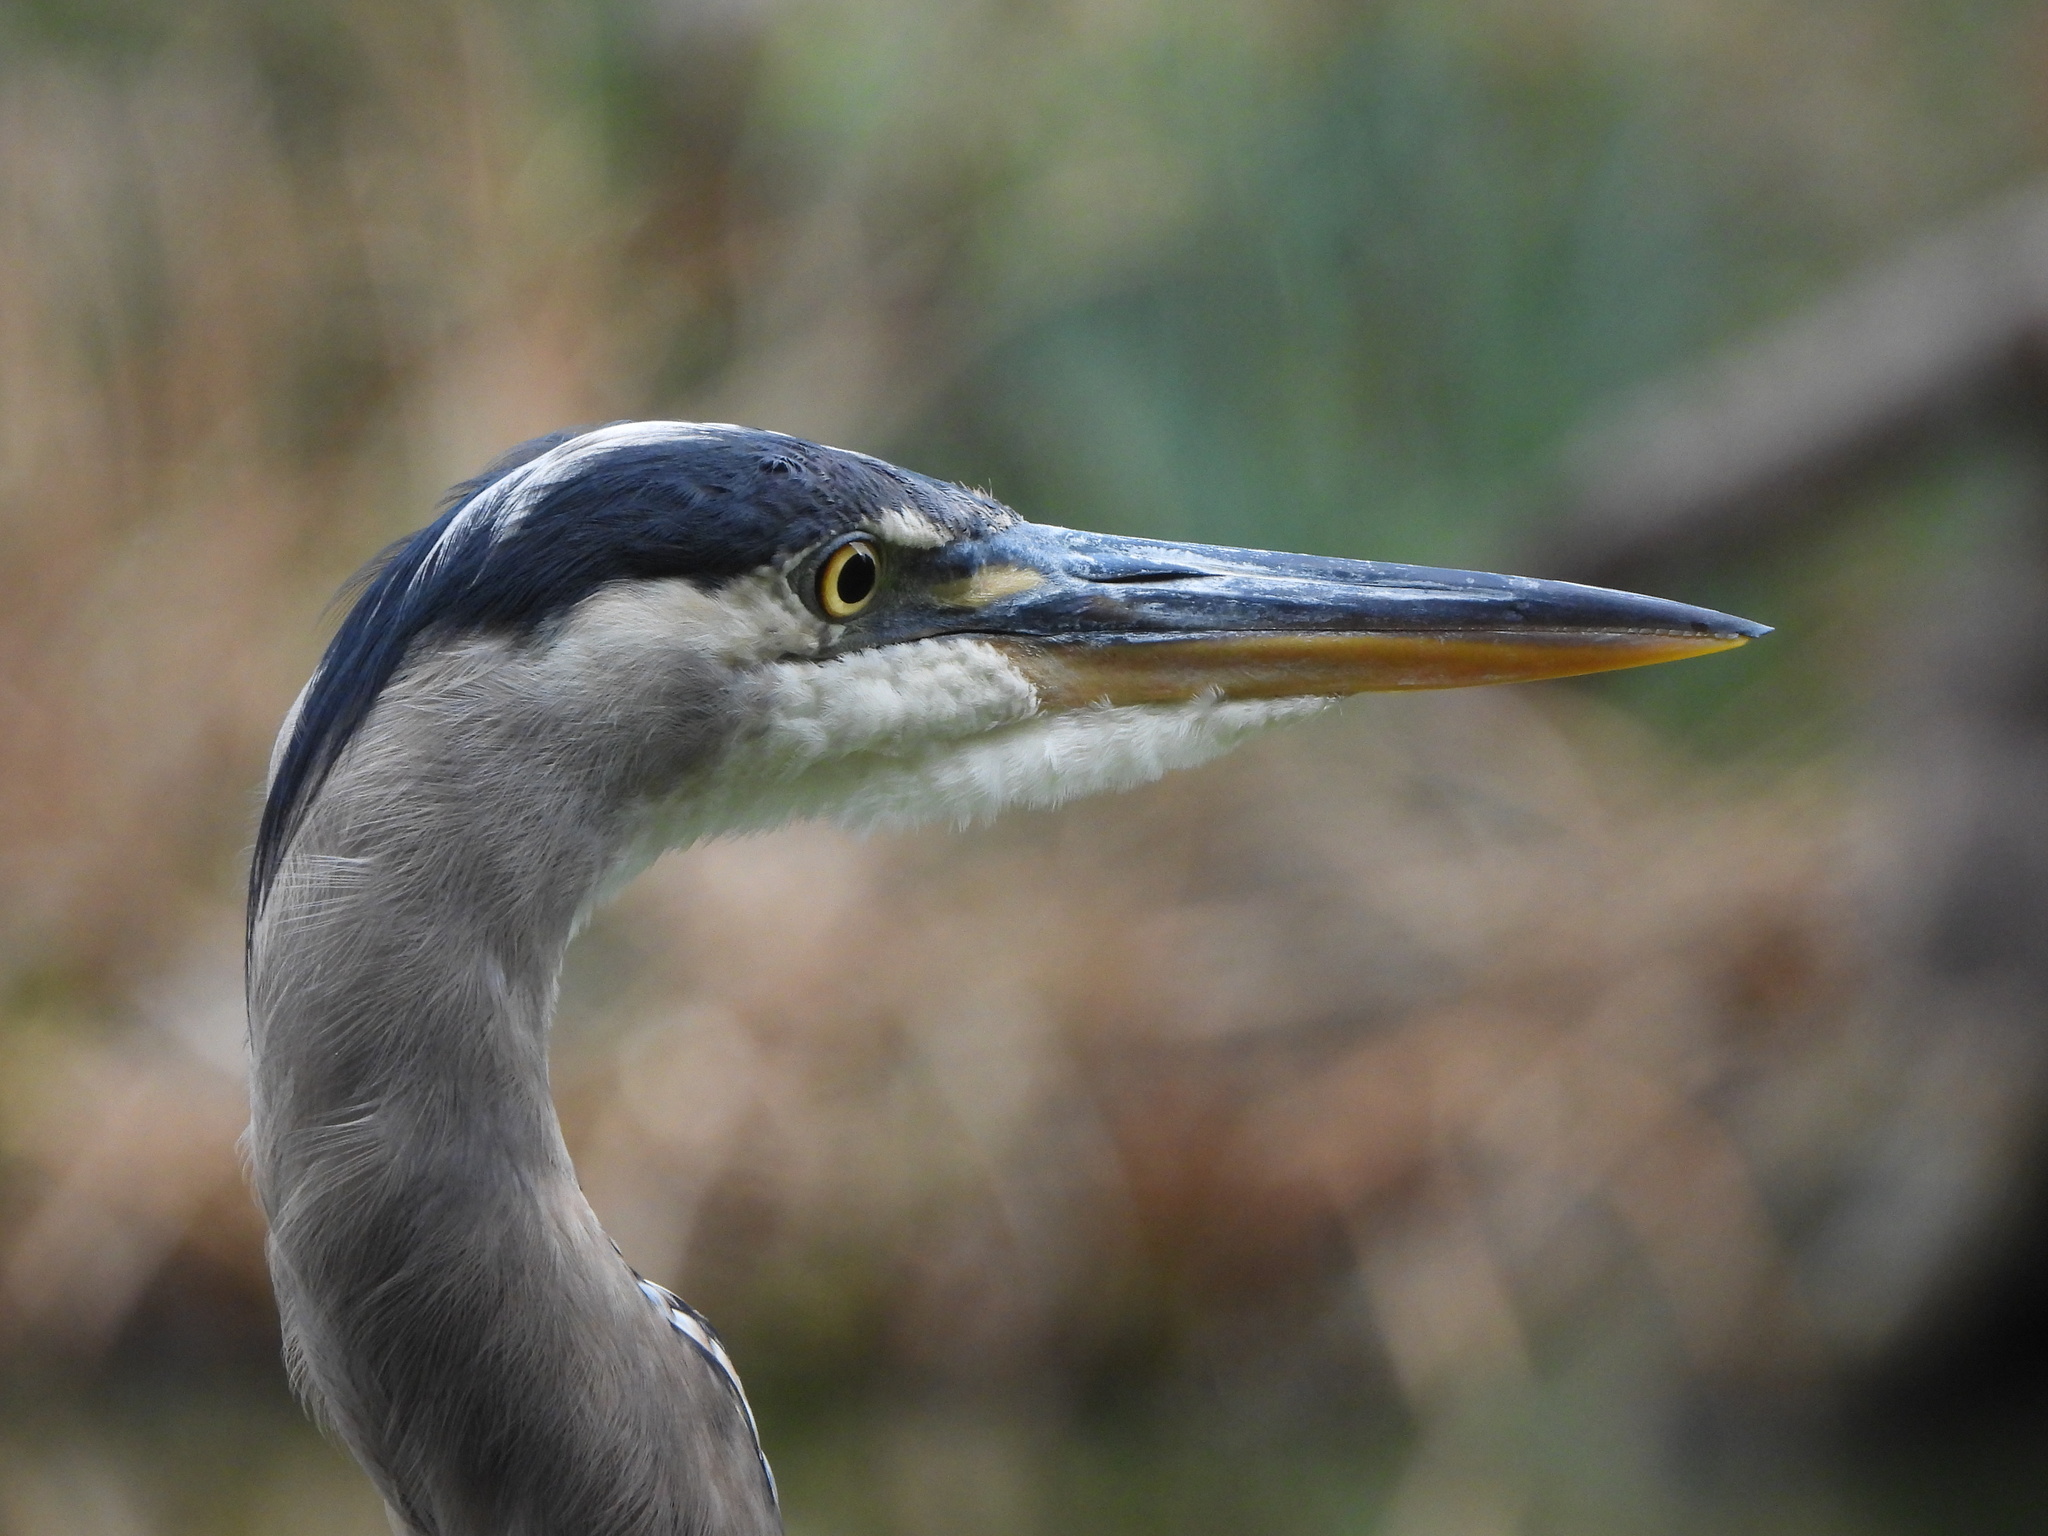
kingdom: Animalia
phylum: Chordata
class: Aves
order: Pelecaniformes
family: Ardeidae
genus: Ardea
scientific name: Ardea herodias
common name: Great blue heron
